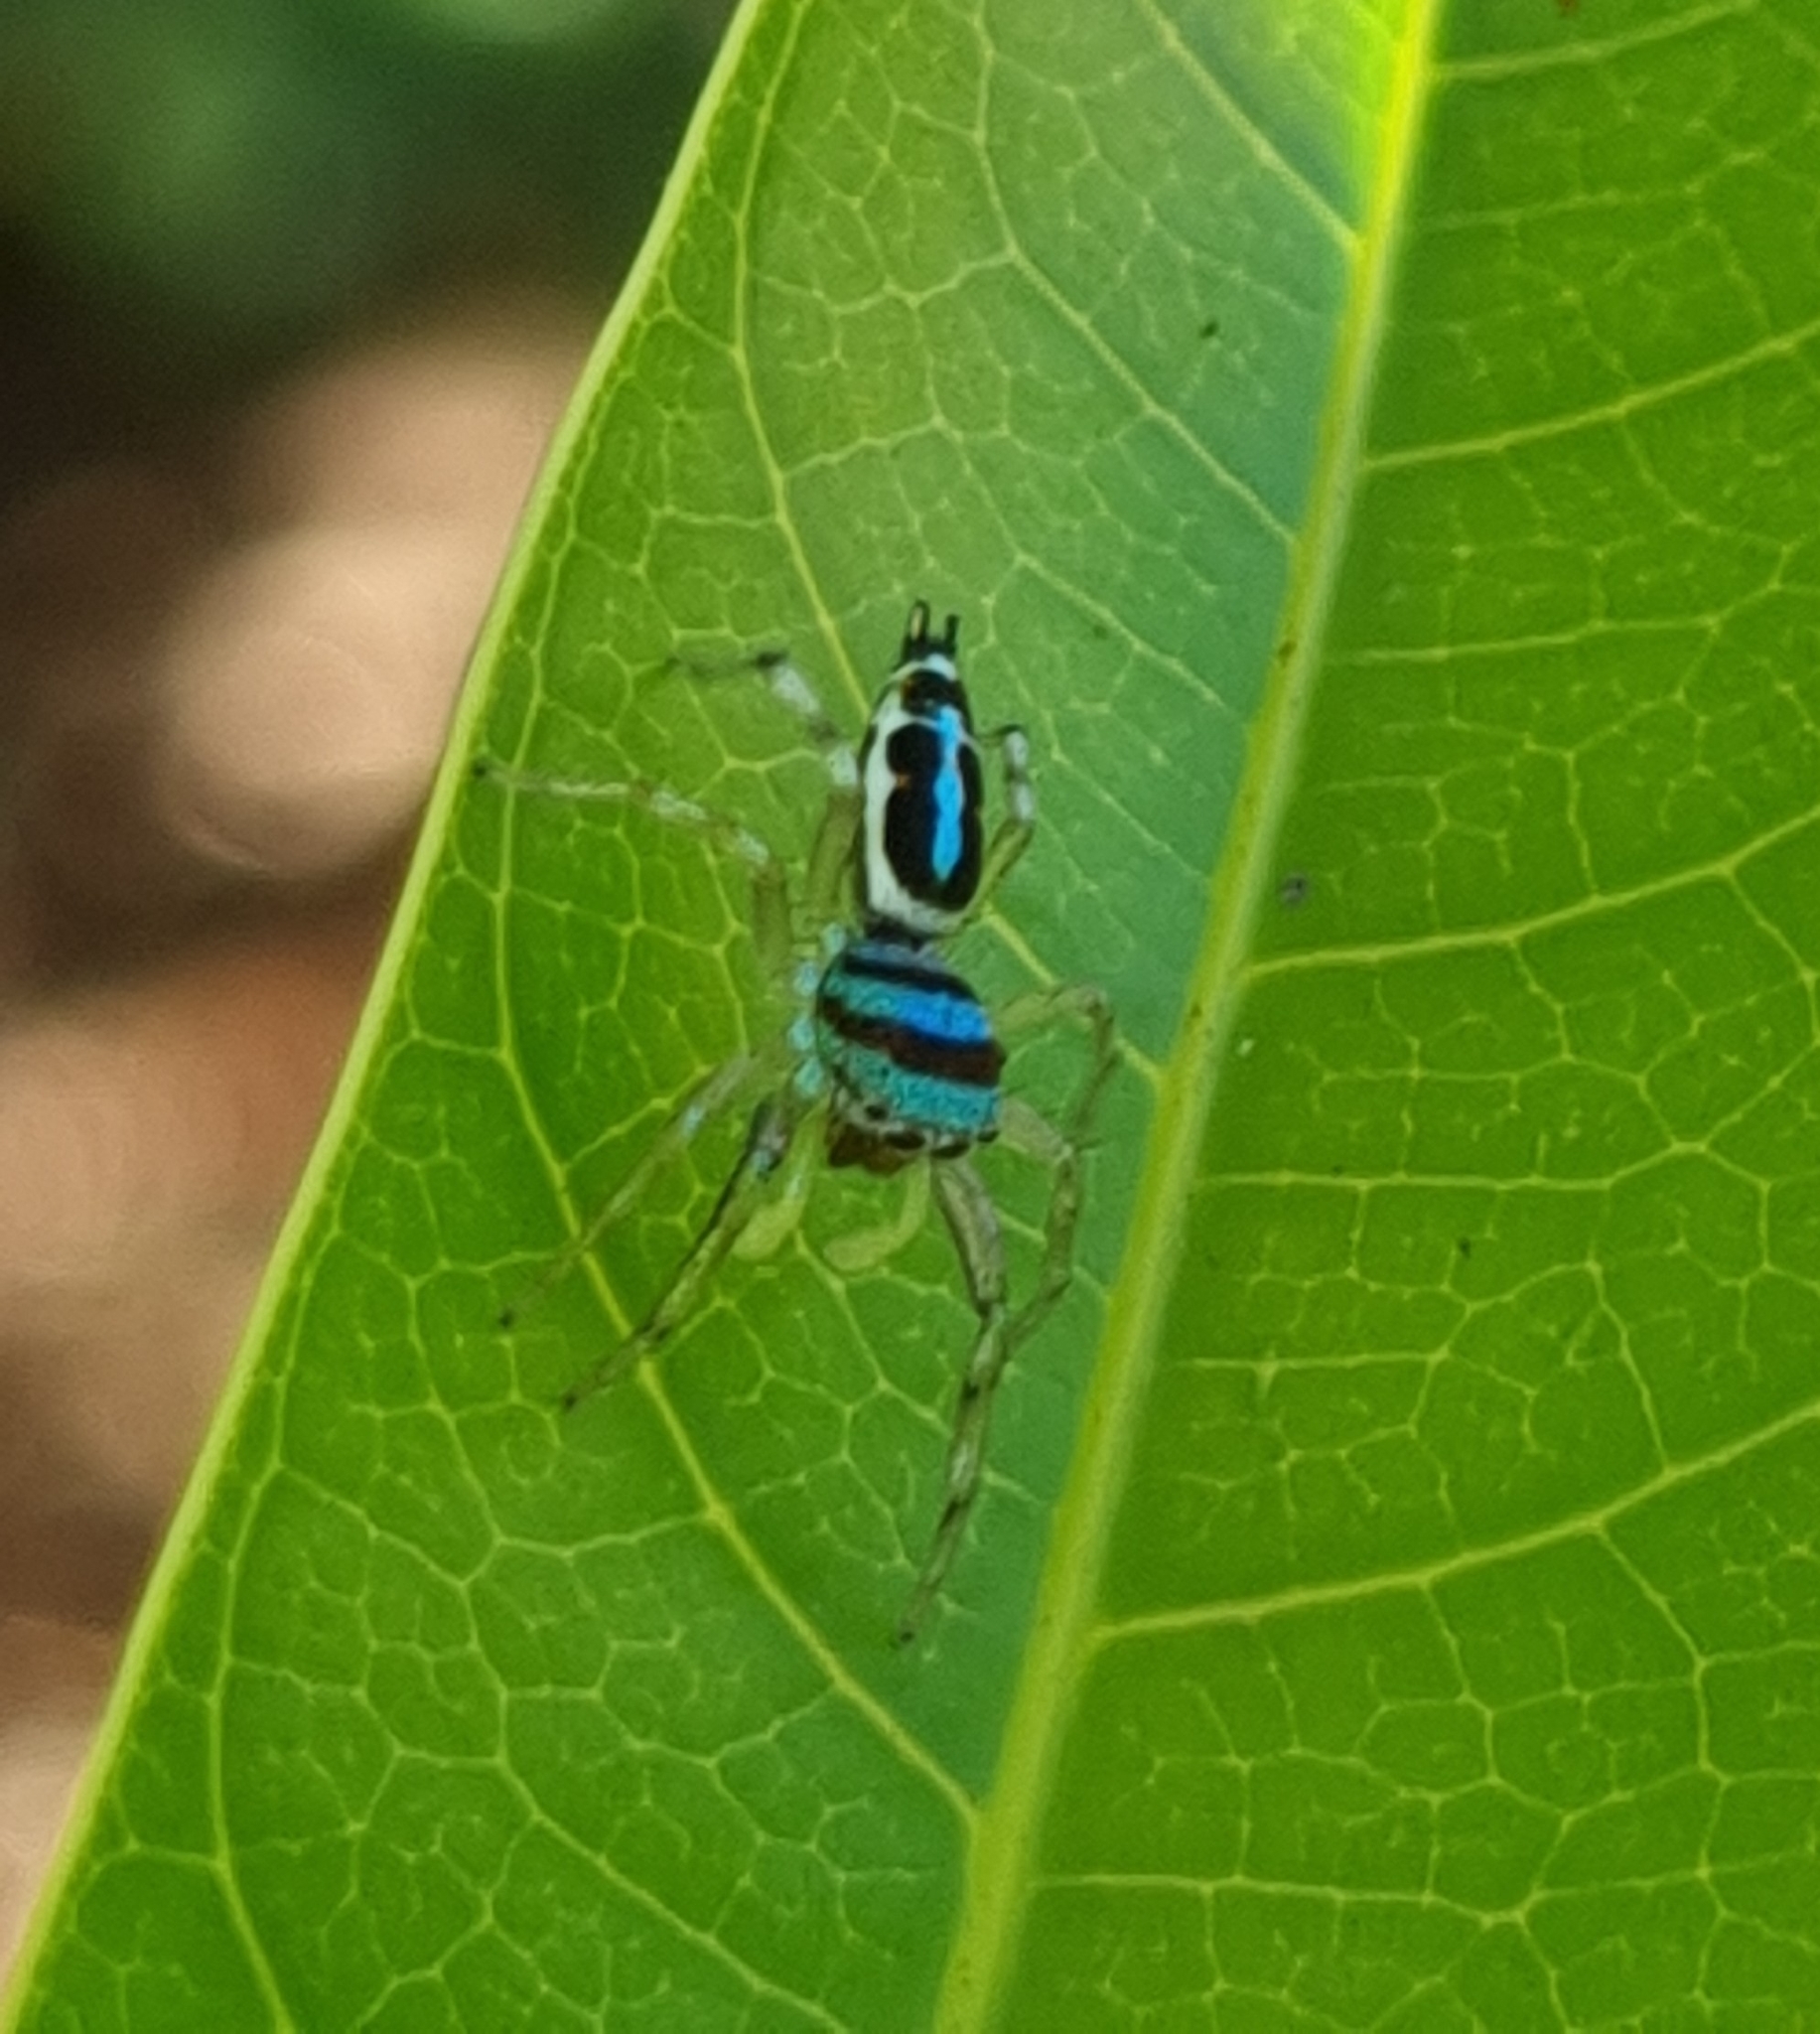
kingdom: Animalia
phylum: Arthropoda
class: Arachnida
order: Araneae
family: Salticidae
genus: Cosmophasis
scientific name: Cosmophasis micarioides
